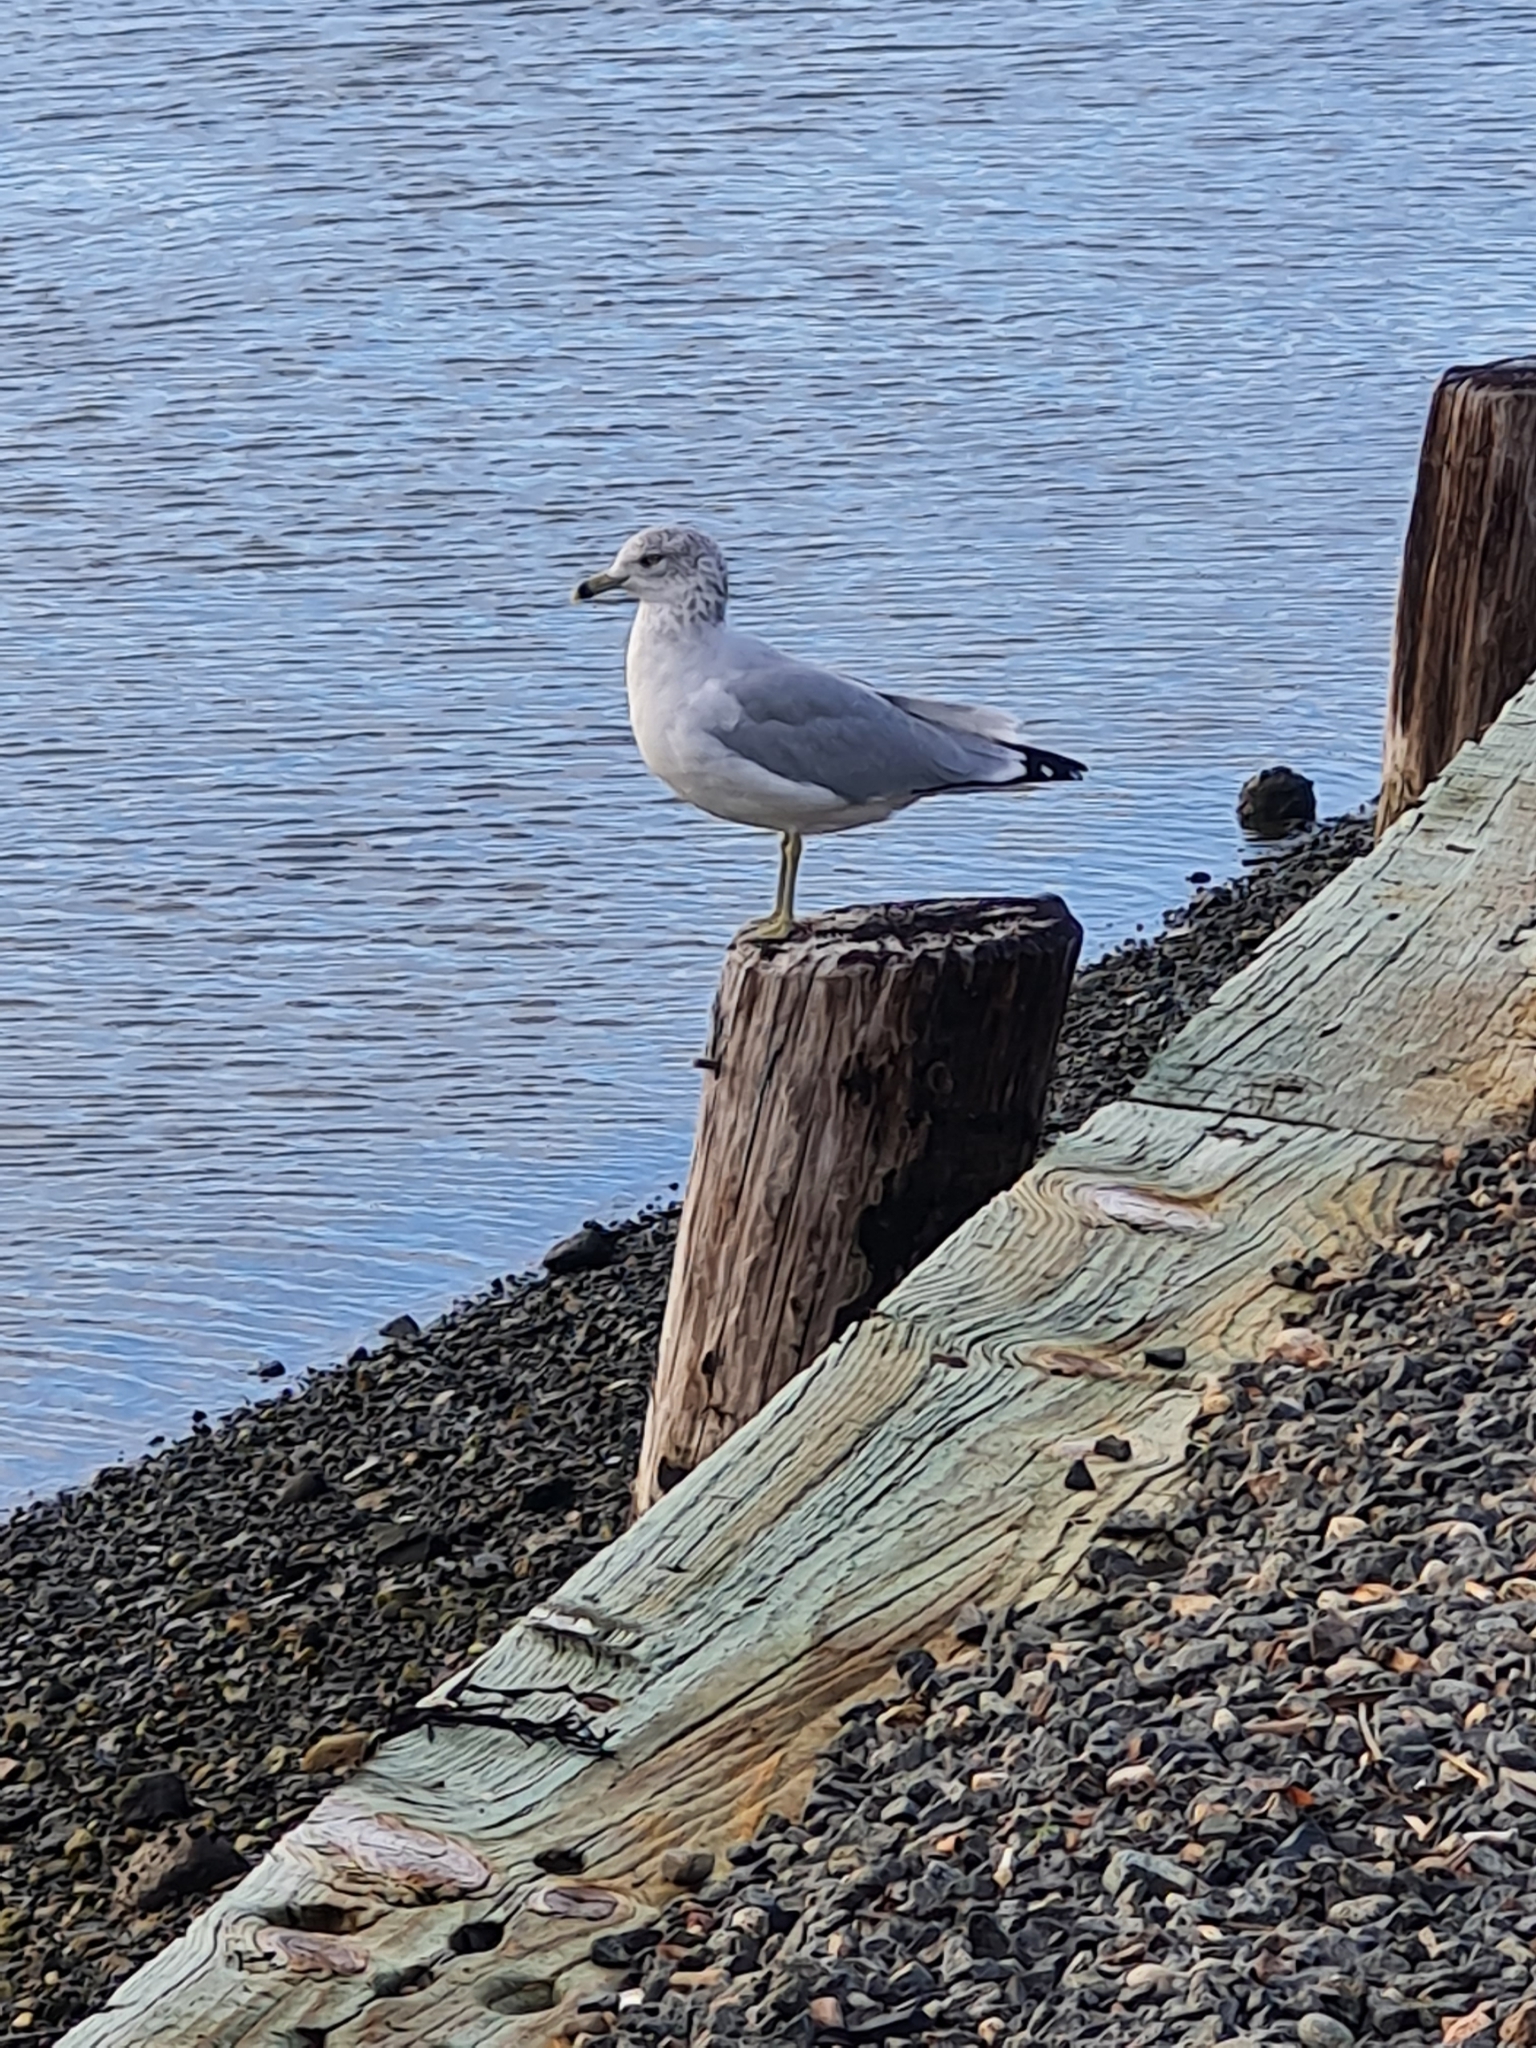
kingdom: Animalia
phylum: Chordata
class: Aves
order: Charadriiformes
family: Laridae
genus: Larus
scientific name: Larus delawarensis
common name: Ring-billed gull
